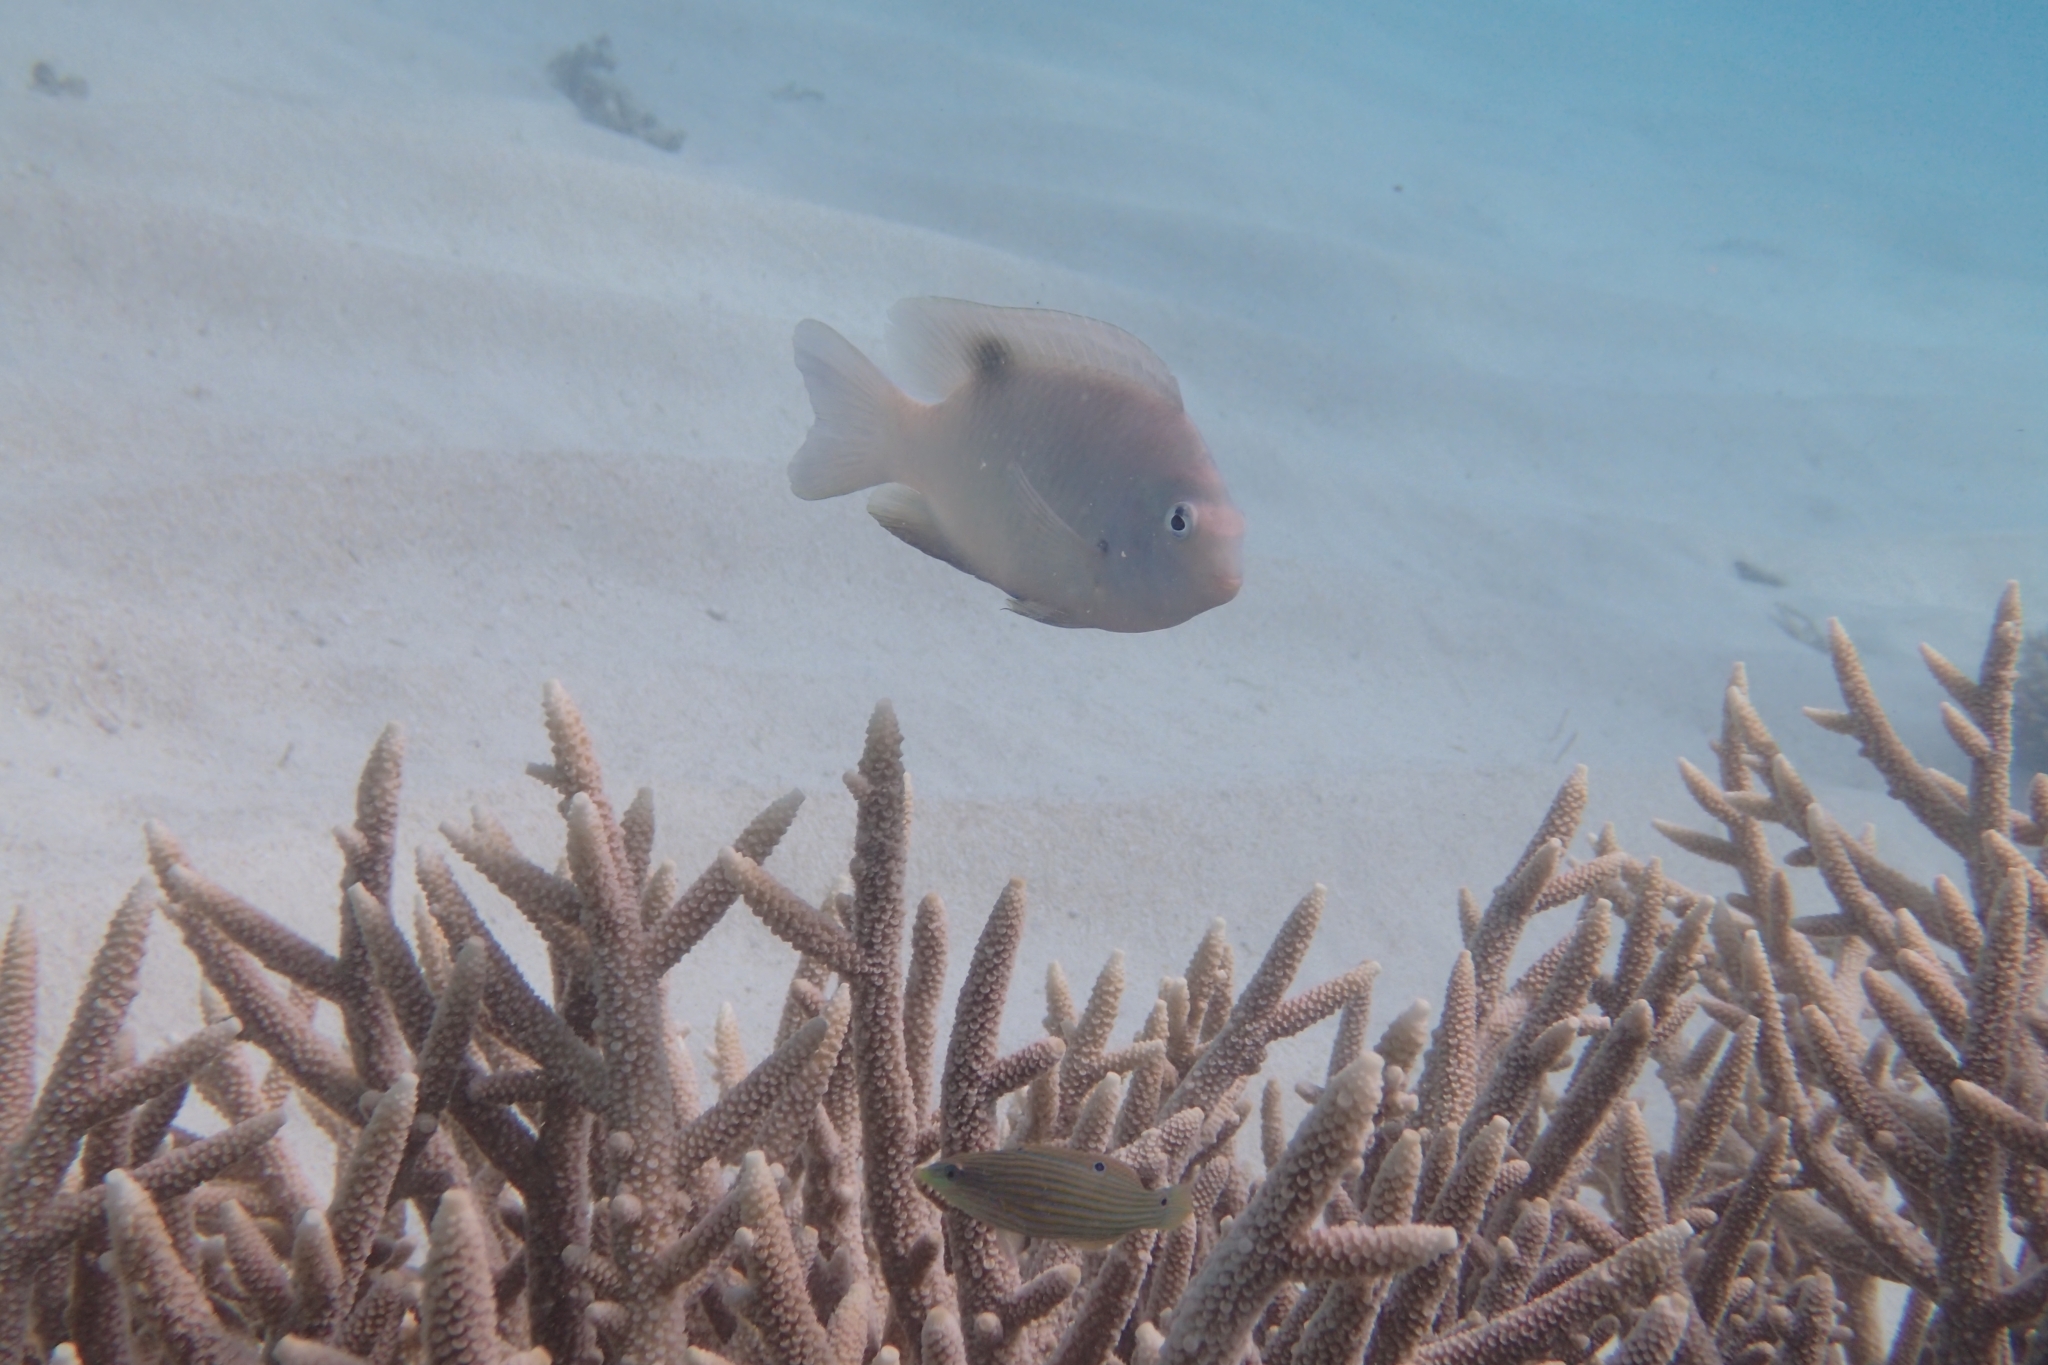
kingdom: Animalia
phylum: Chordata
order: Perciformes
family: Pomacentridae
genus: Dischistodus
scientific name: Dischistodus perspicillatus
